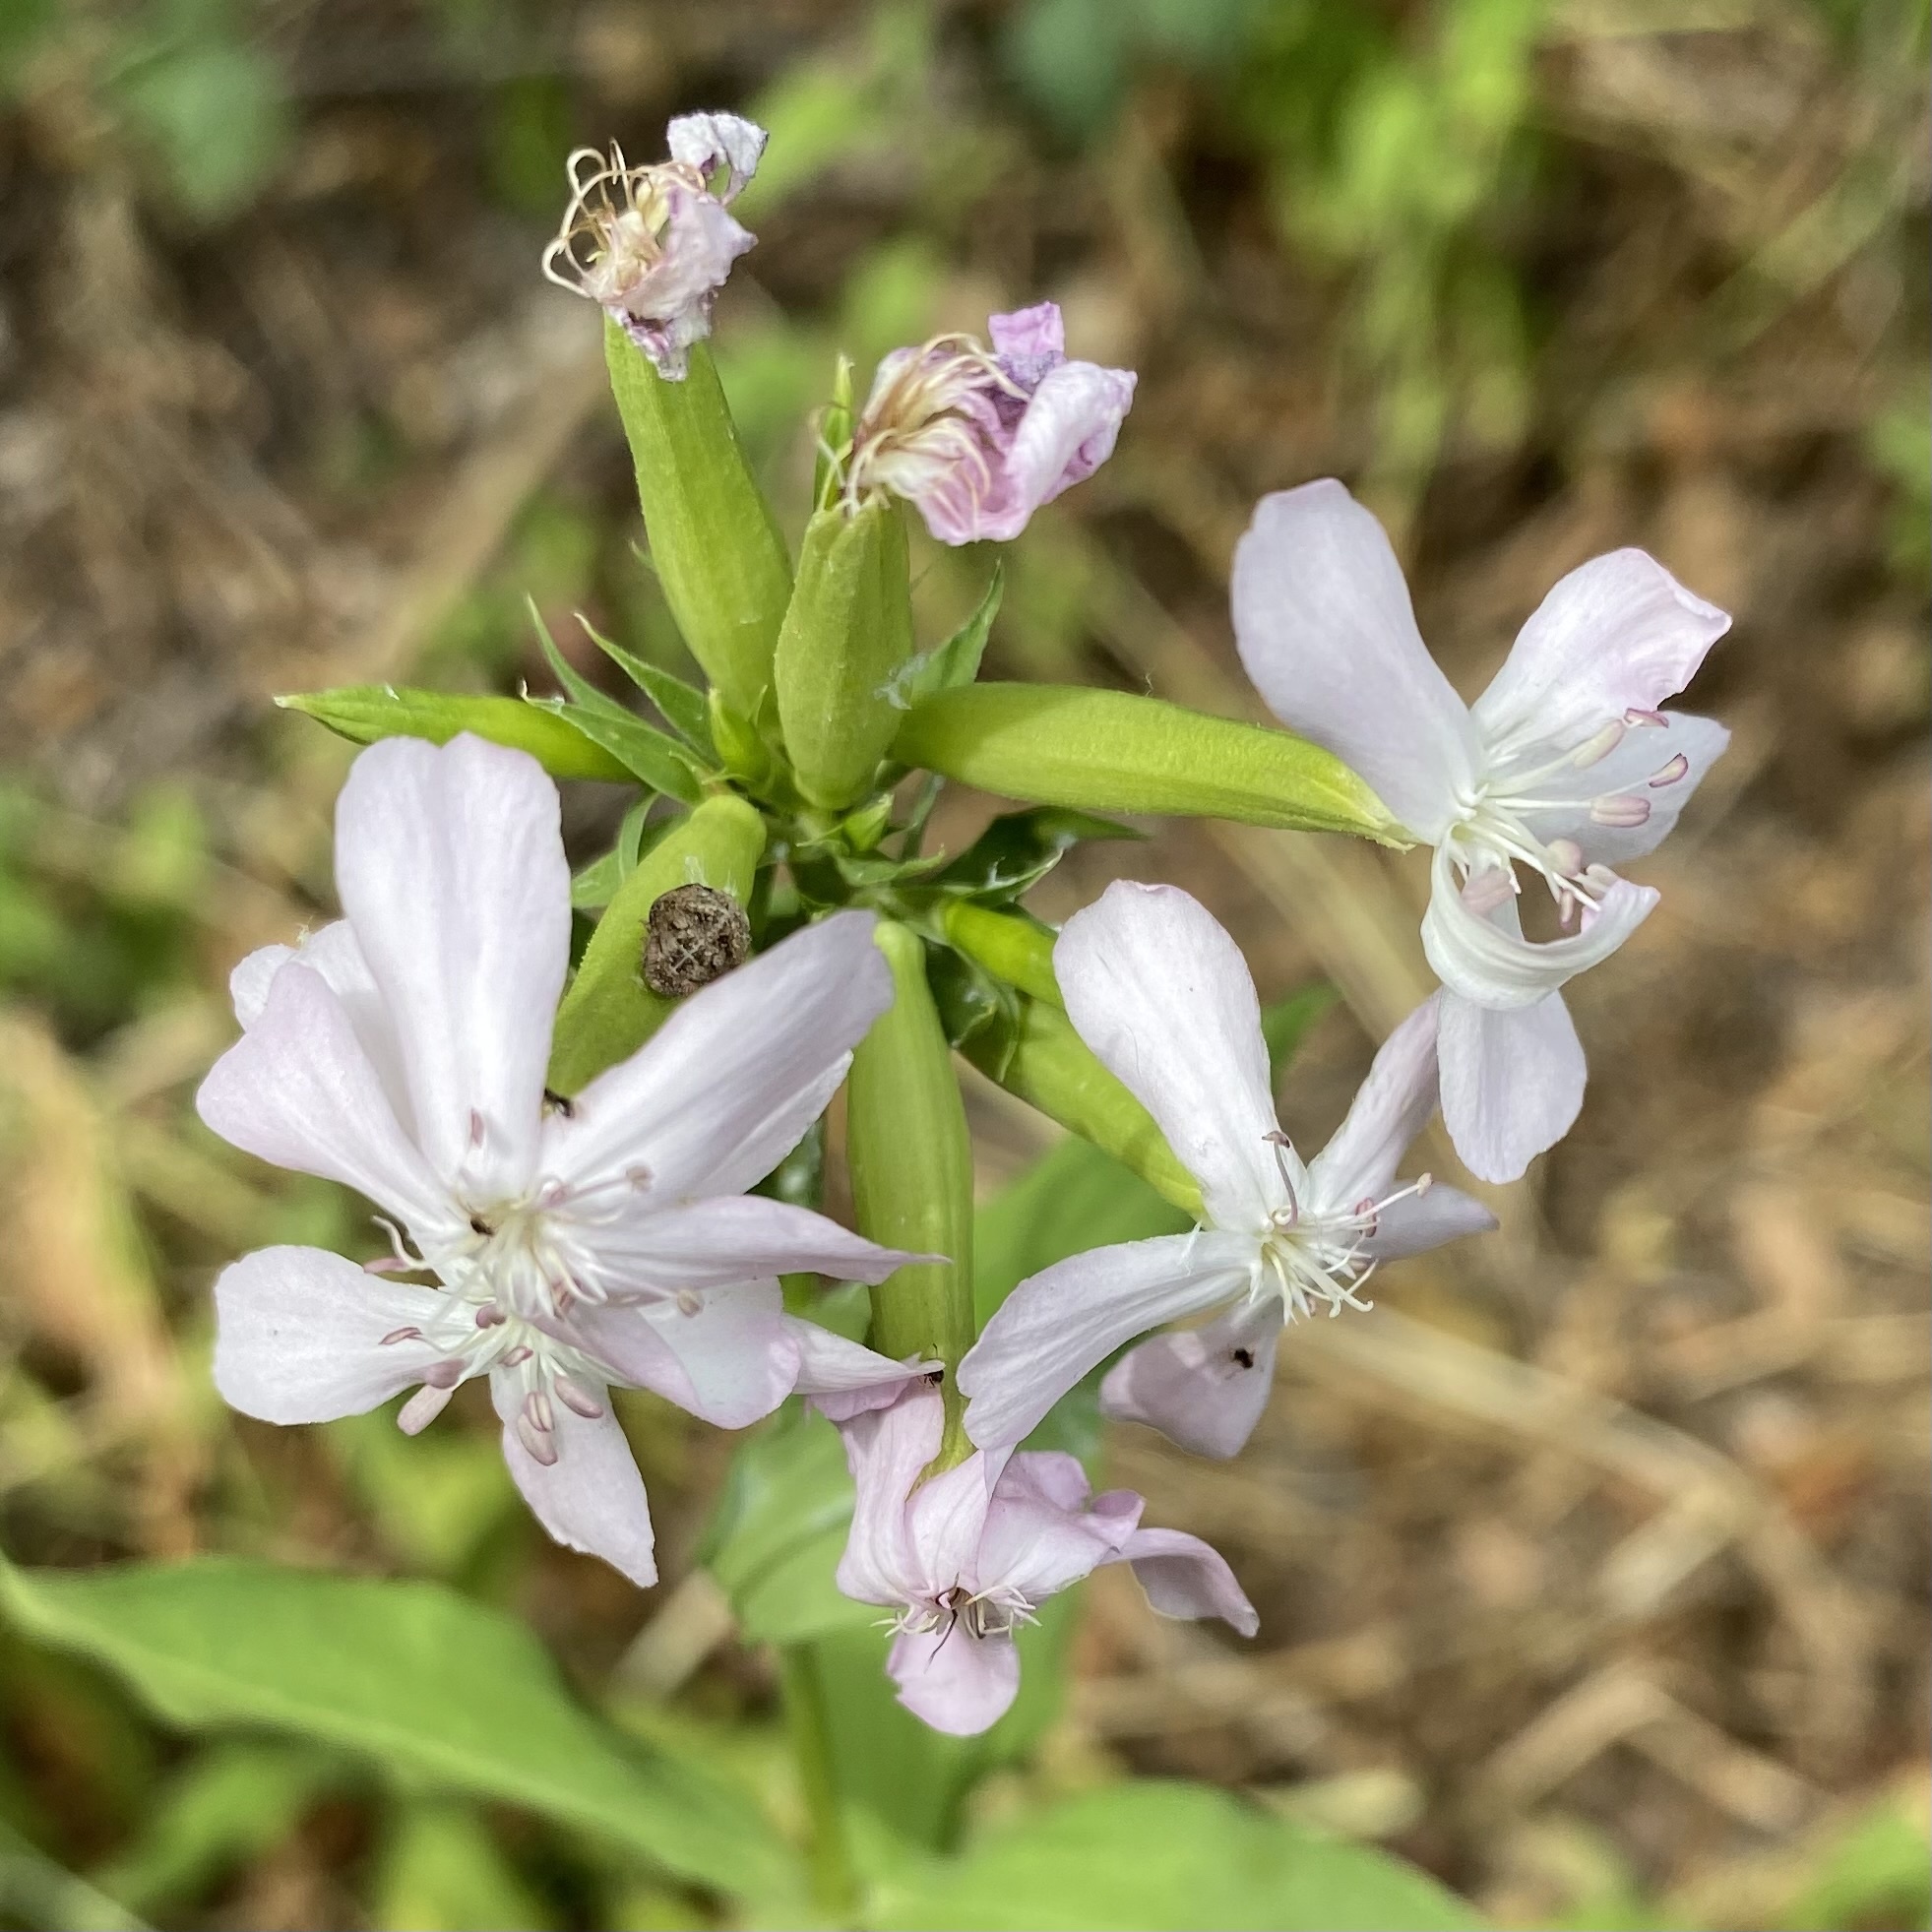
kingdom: Plantae
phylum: Tracheophyta
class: Magnoliopsida
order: Caryophyllales
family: Caryophyllaceae
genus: Saponaria
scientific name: Saponaria officinalis
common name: Soapwort
